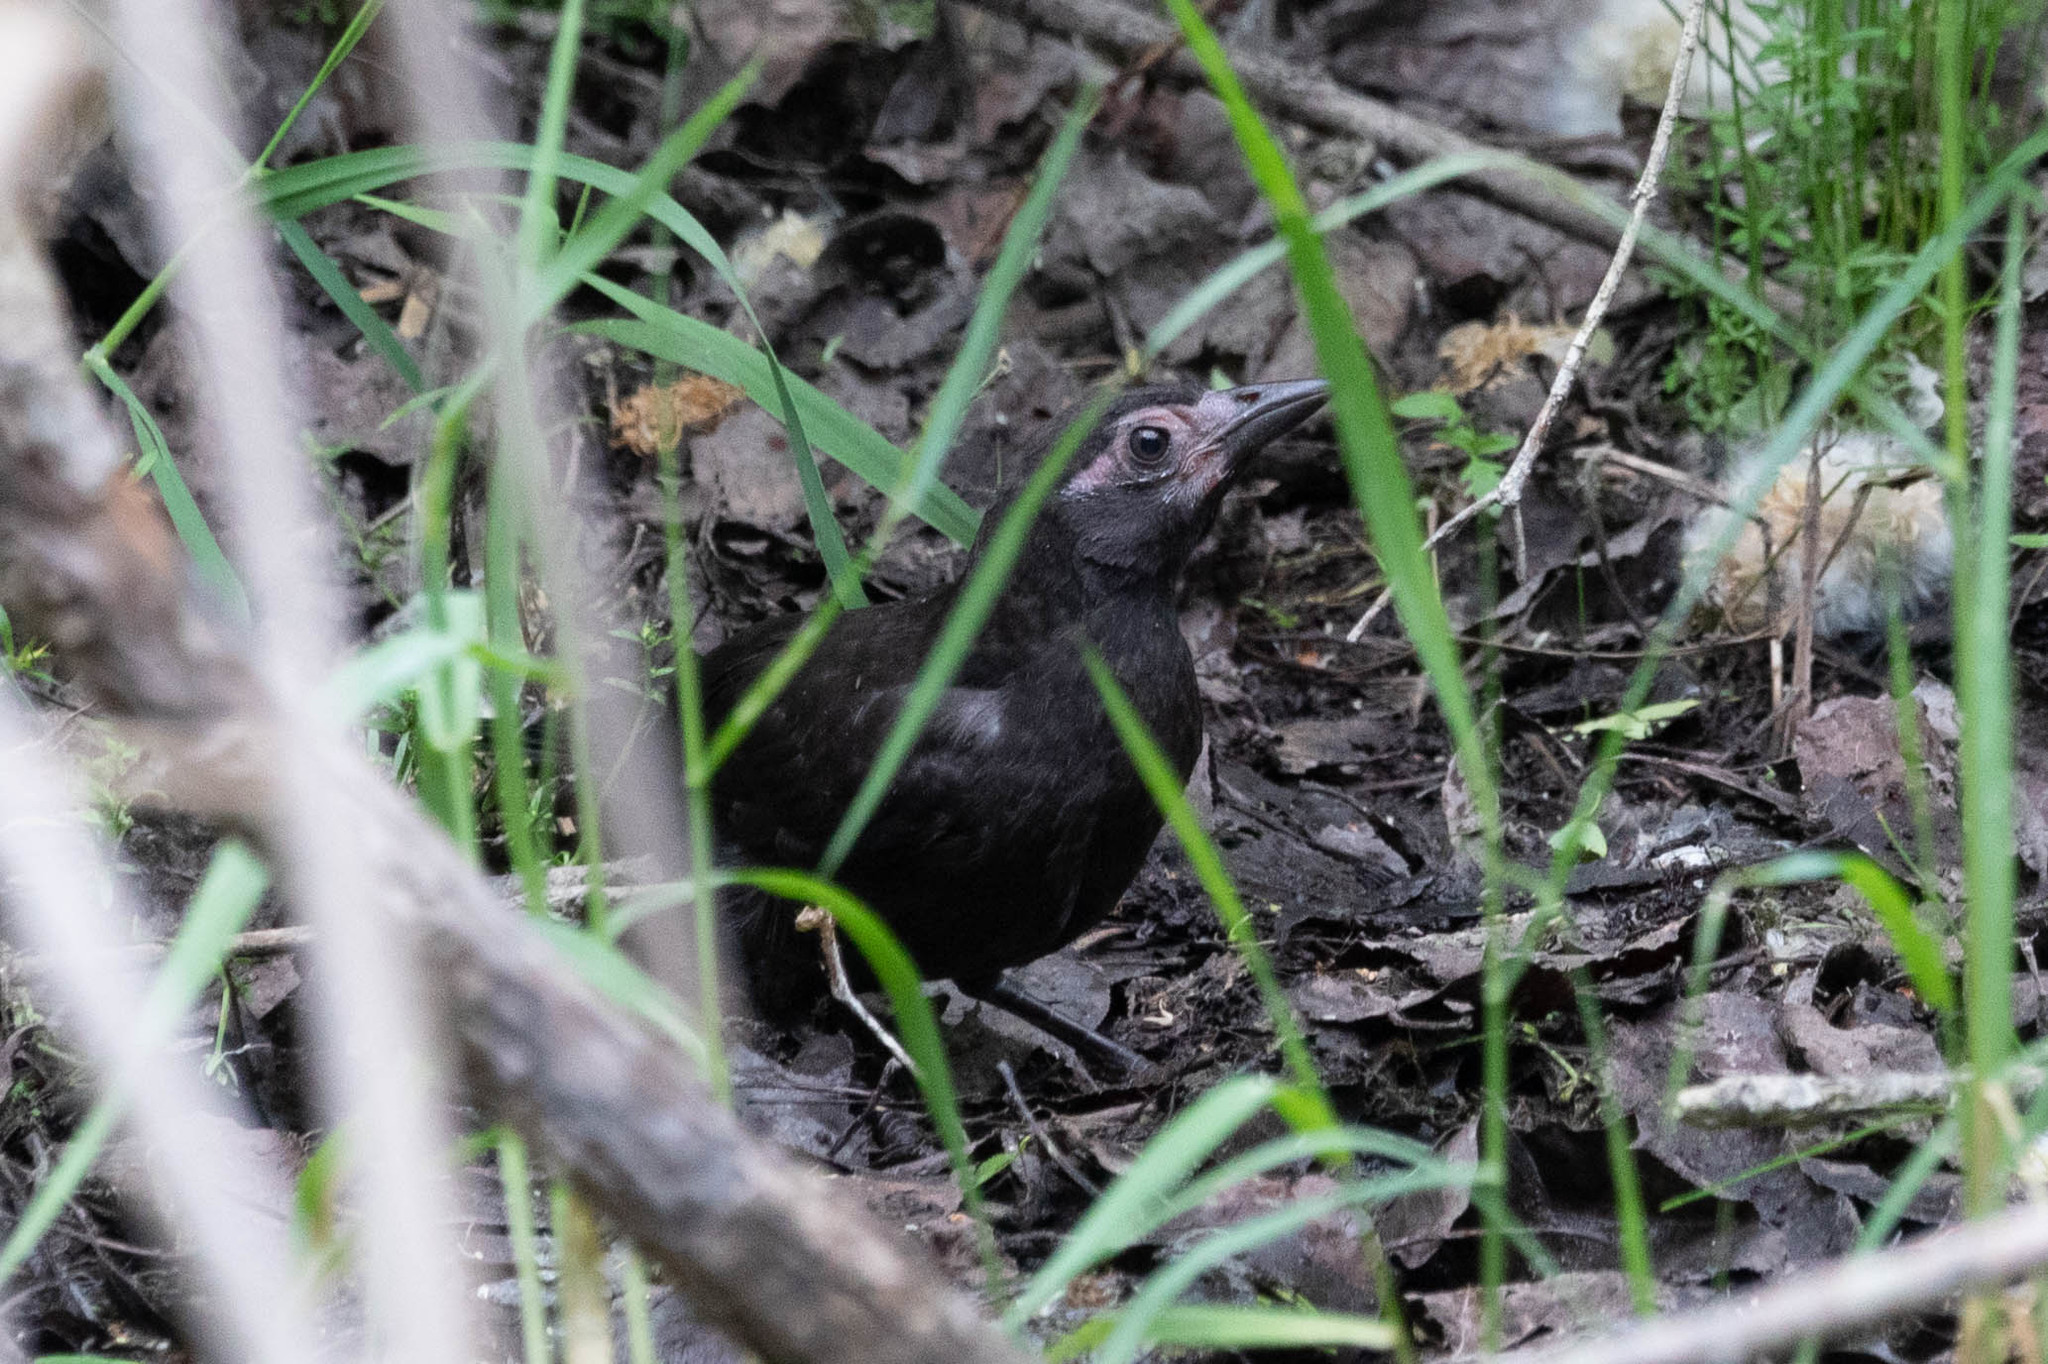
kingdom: Animalia
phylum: Chordata
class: Aves
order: Passeriformes
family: Icteridae
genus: Quiscalus
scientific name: Quiscalus quiscula
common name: Common grackle
